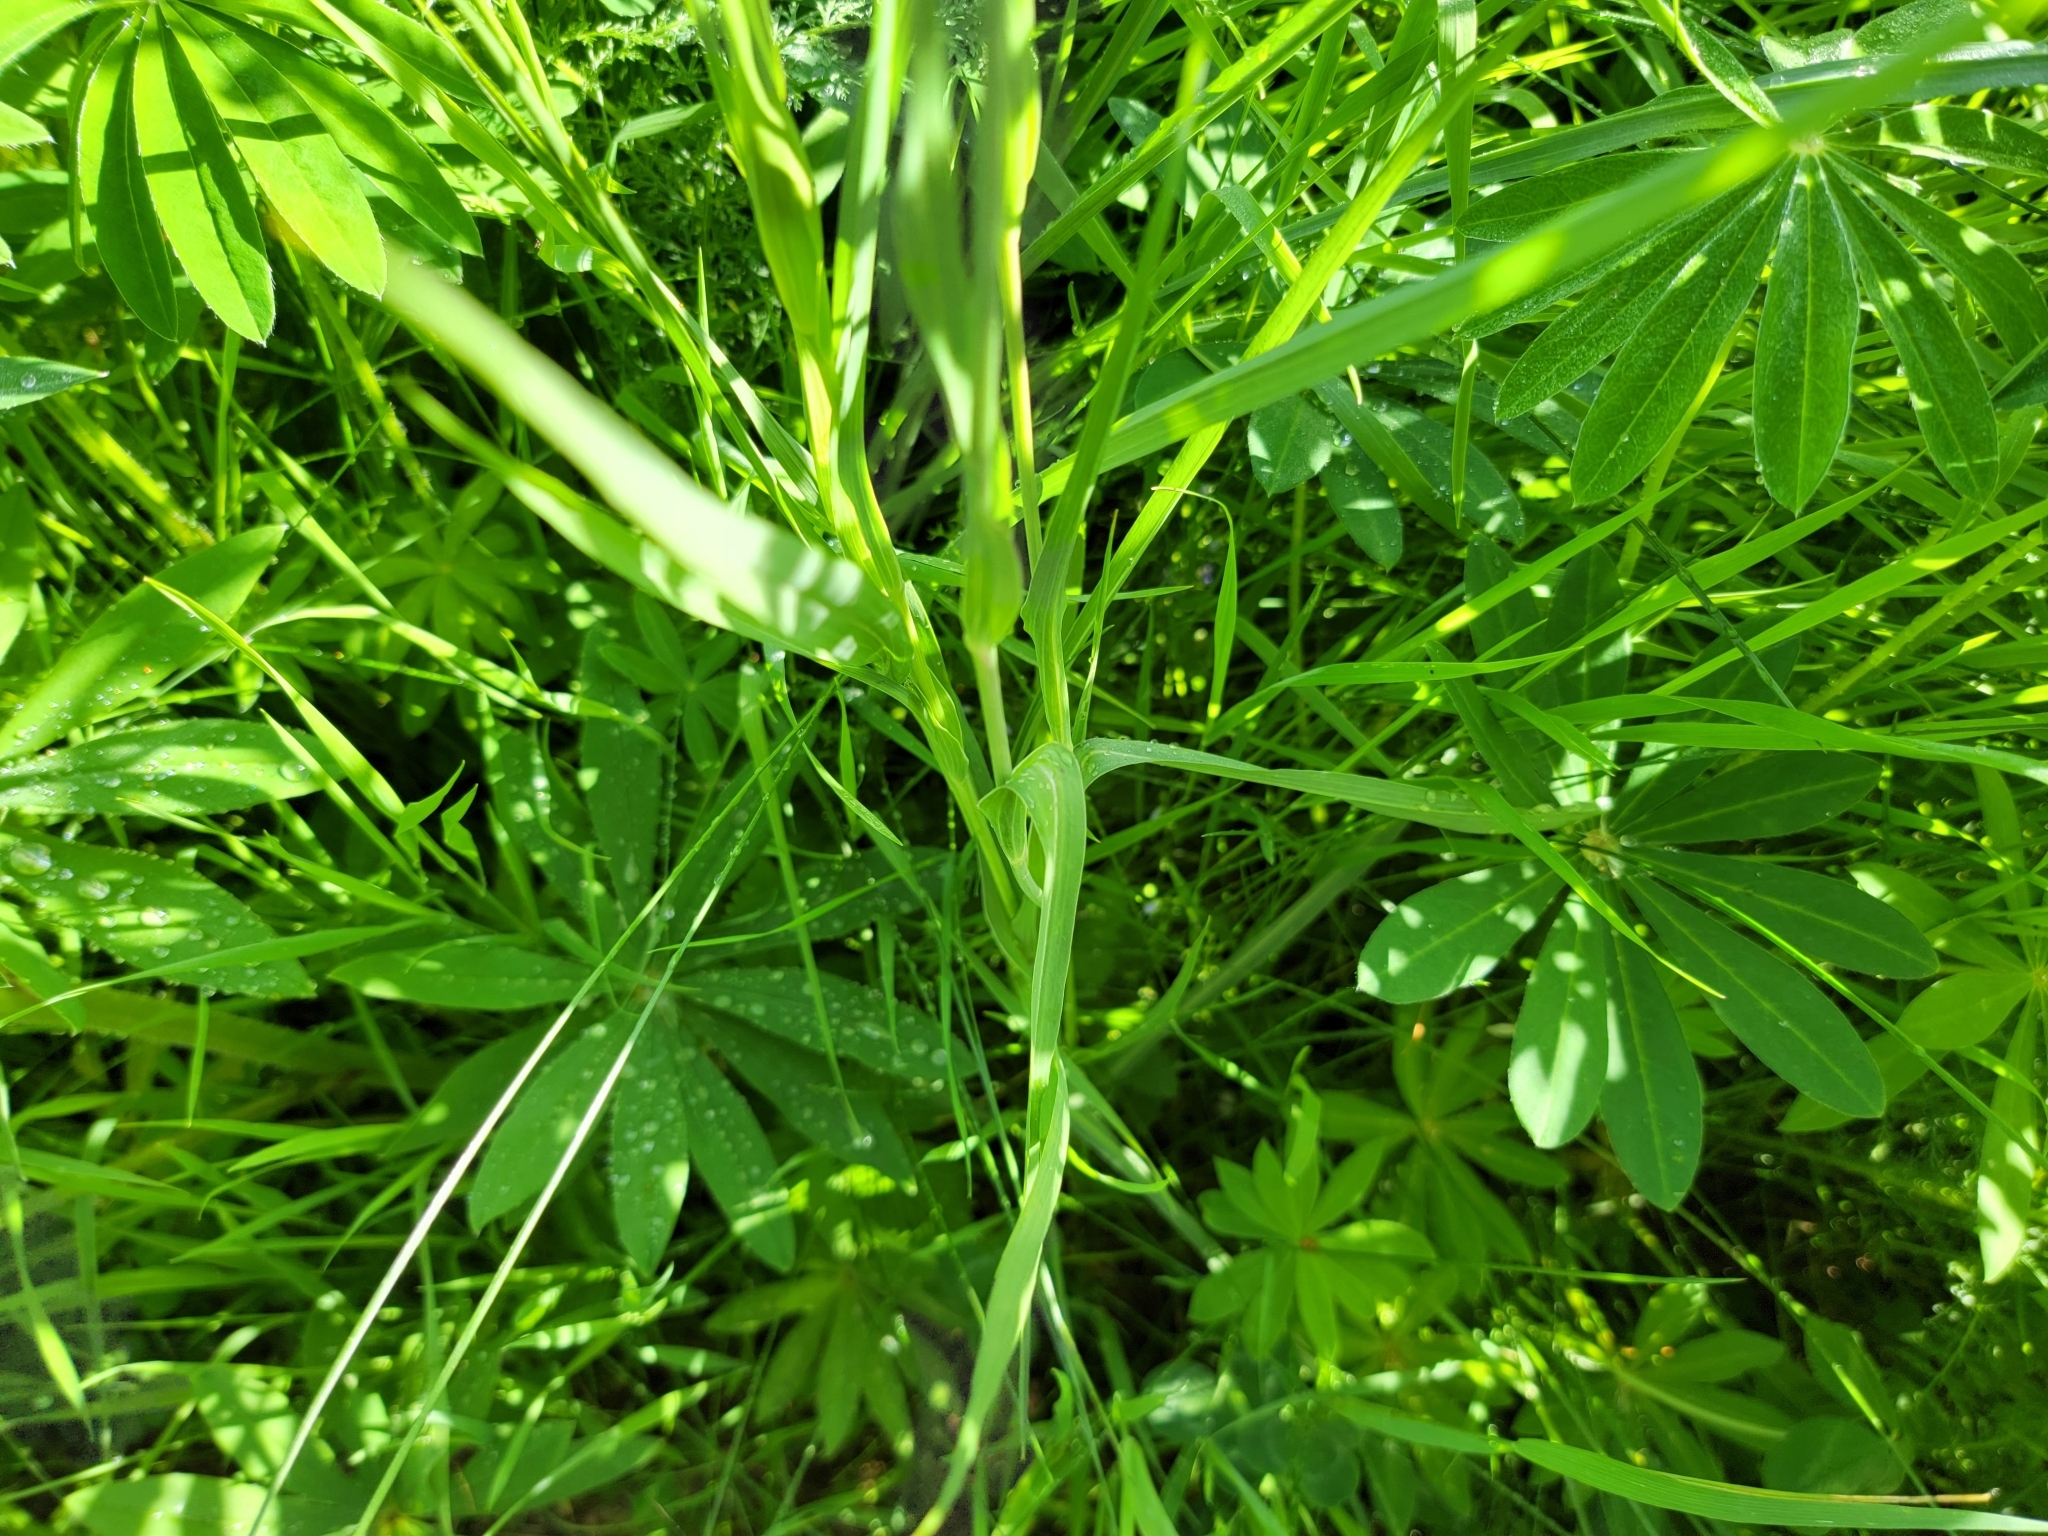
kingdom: Plantae
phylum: Tracheophyta
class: Magnoliopsida
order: Asterales
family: Asteraceae
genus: Tragopogon
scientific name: Tragopogon orientalis
